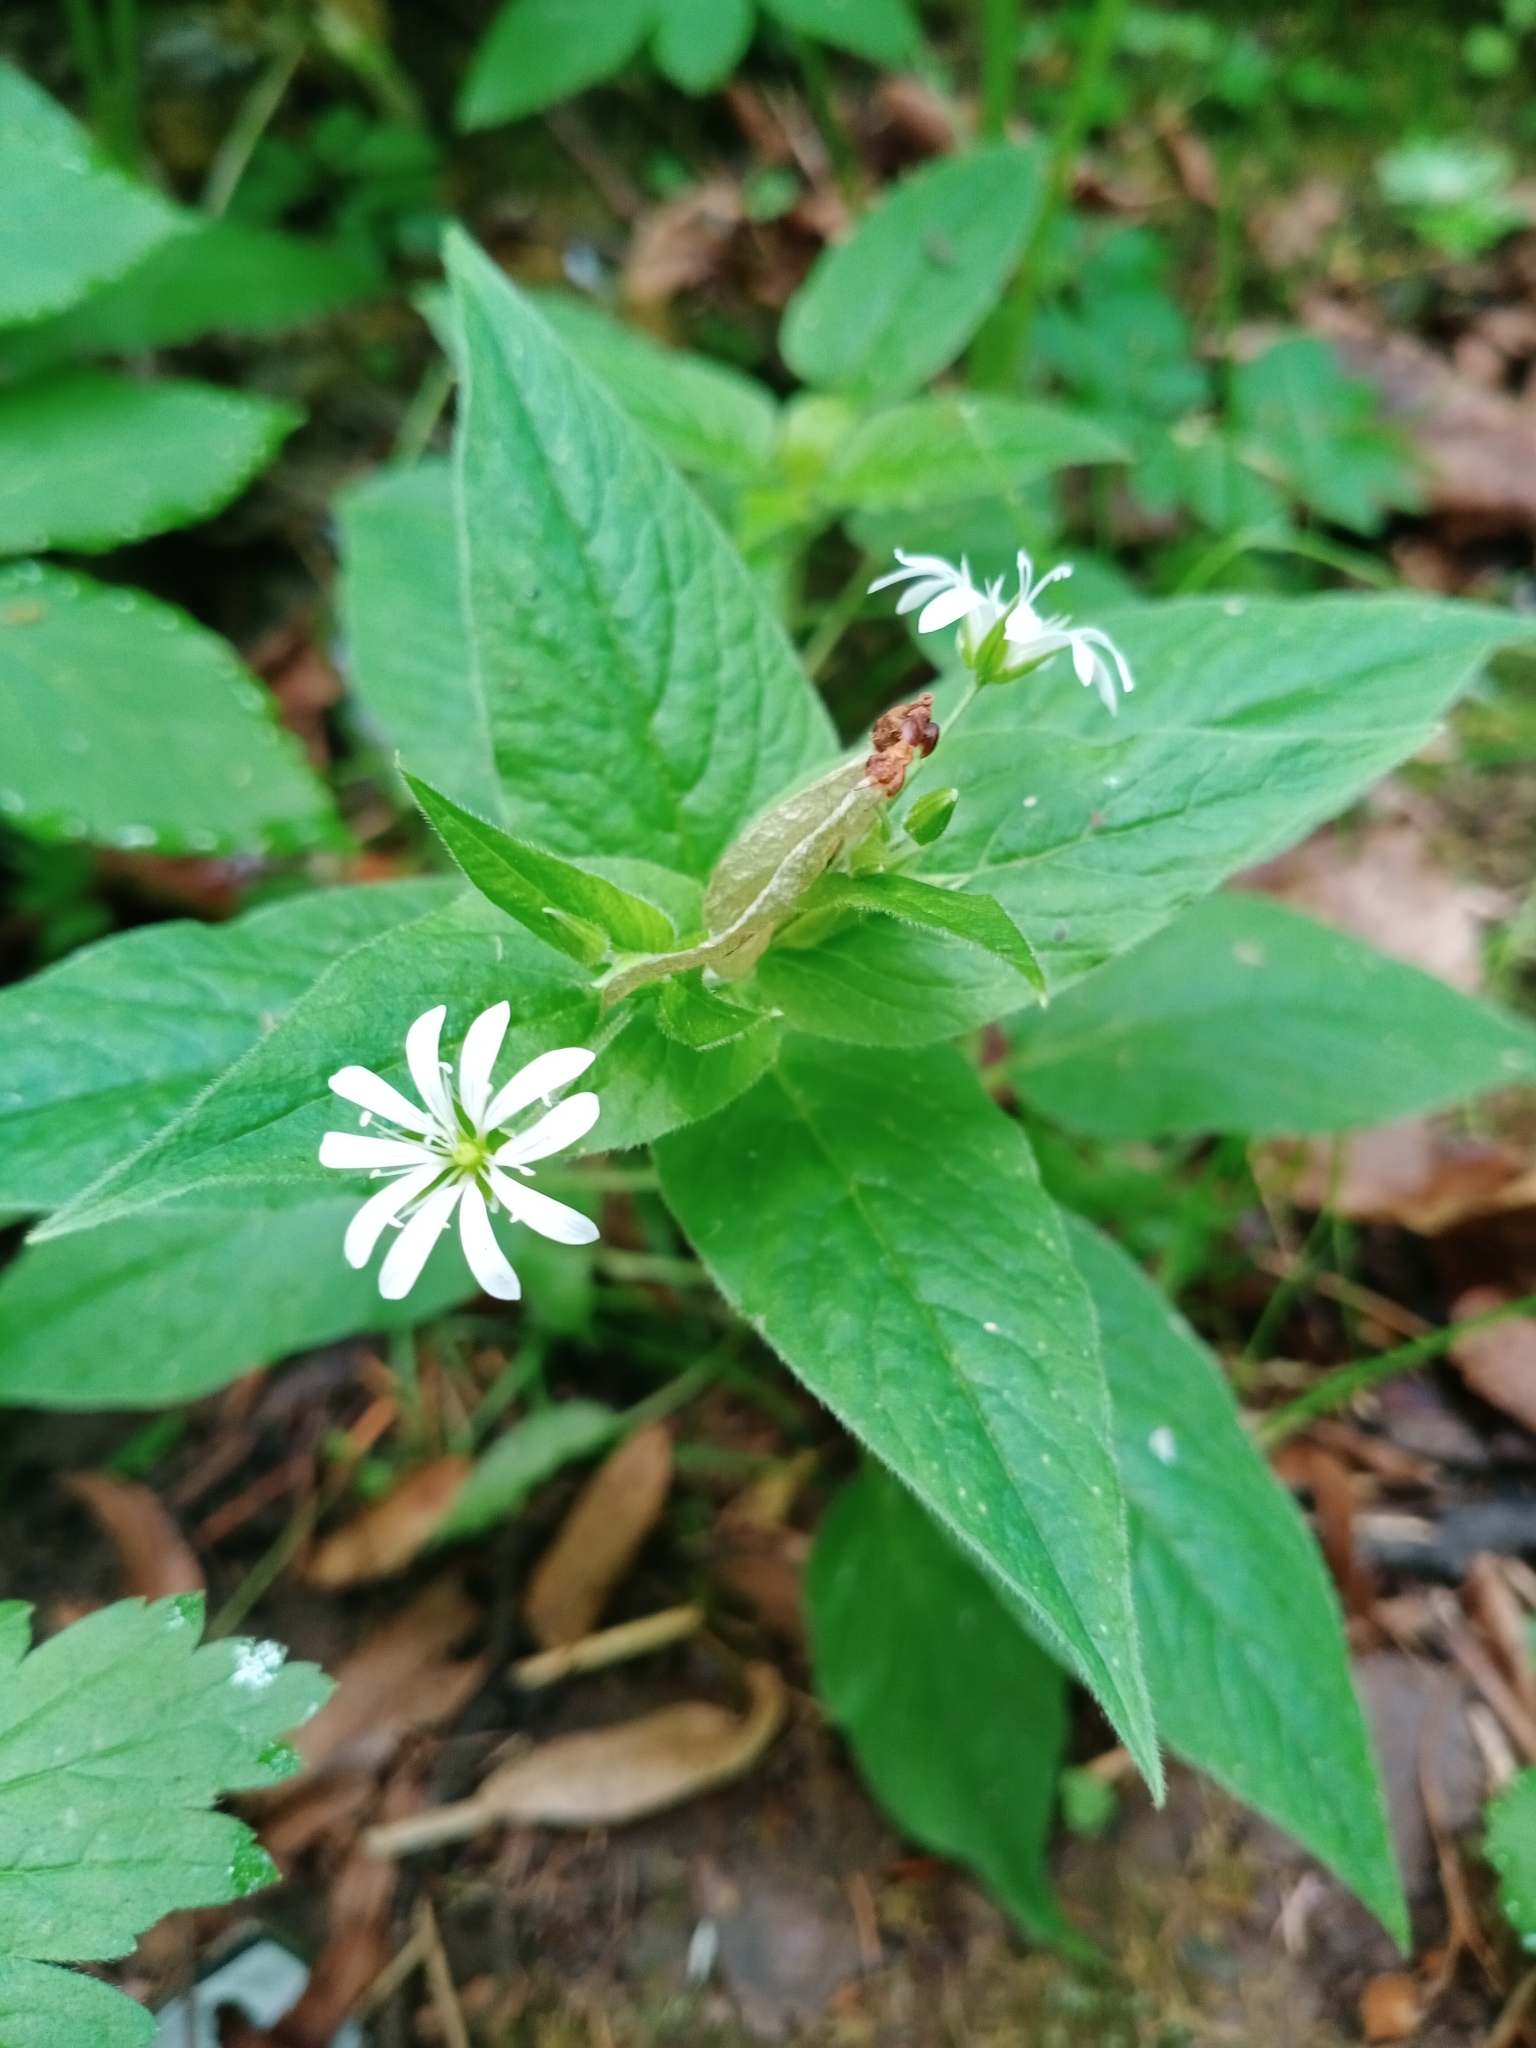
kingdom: Plantae
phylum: Tracheophyta
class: Magnoliopsida
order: Caryophyllales
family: Caryophyllaceae
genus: Stellaria
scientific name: Stellaria nemorum
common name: Wood stitchwort
